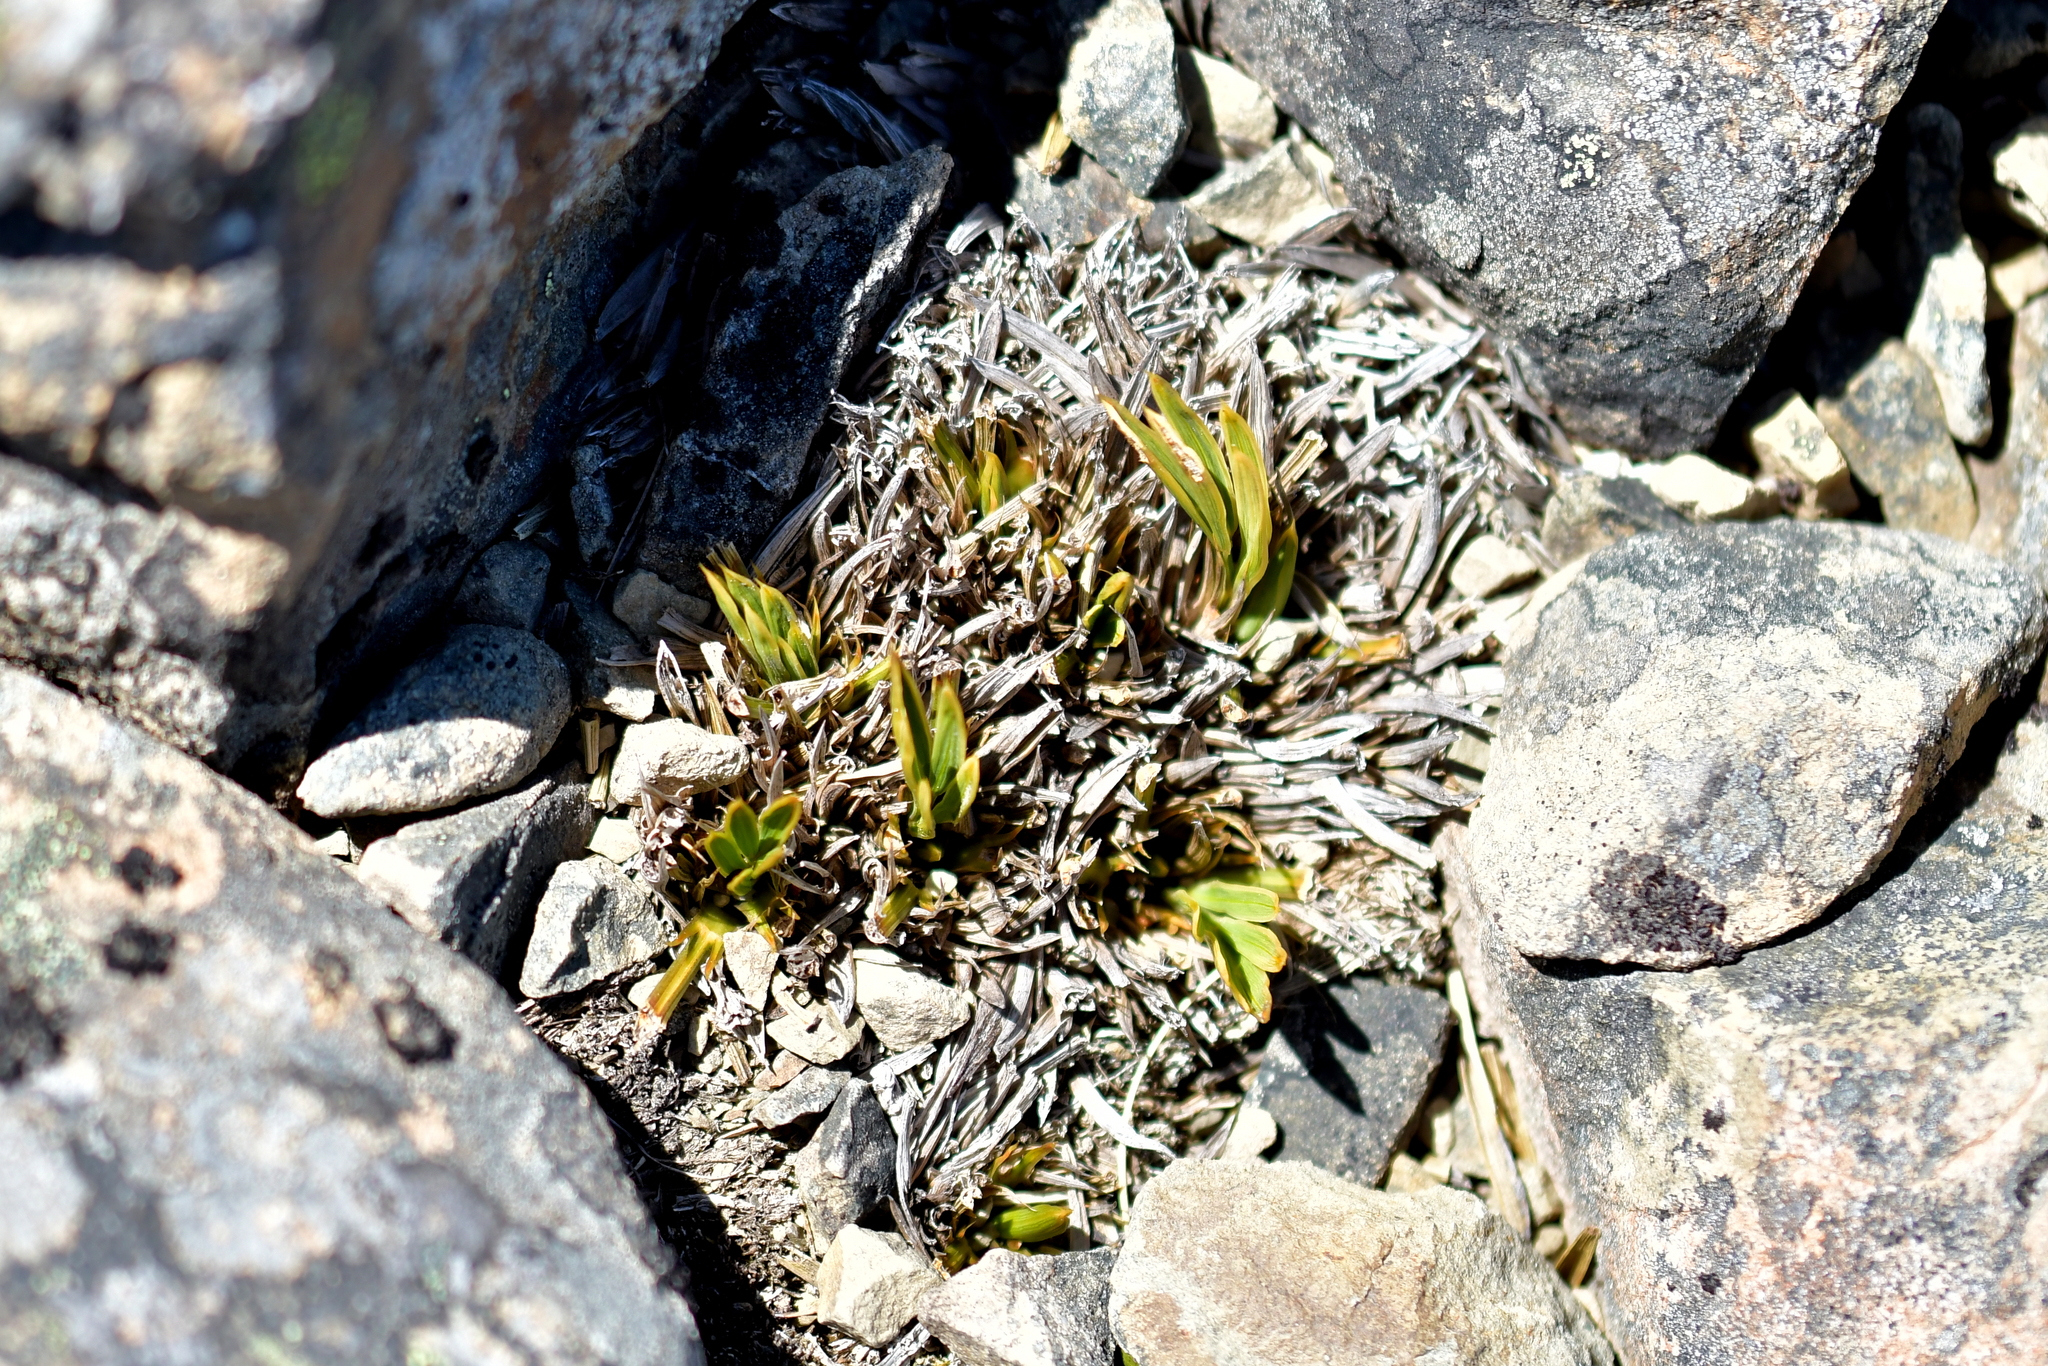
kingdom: Plantae
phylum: Tracheophyta
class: Magnoliopsida
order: Apiales
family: Apiaceae
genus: Aciphylla
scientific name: Aciphylla monroi
